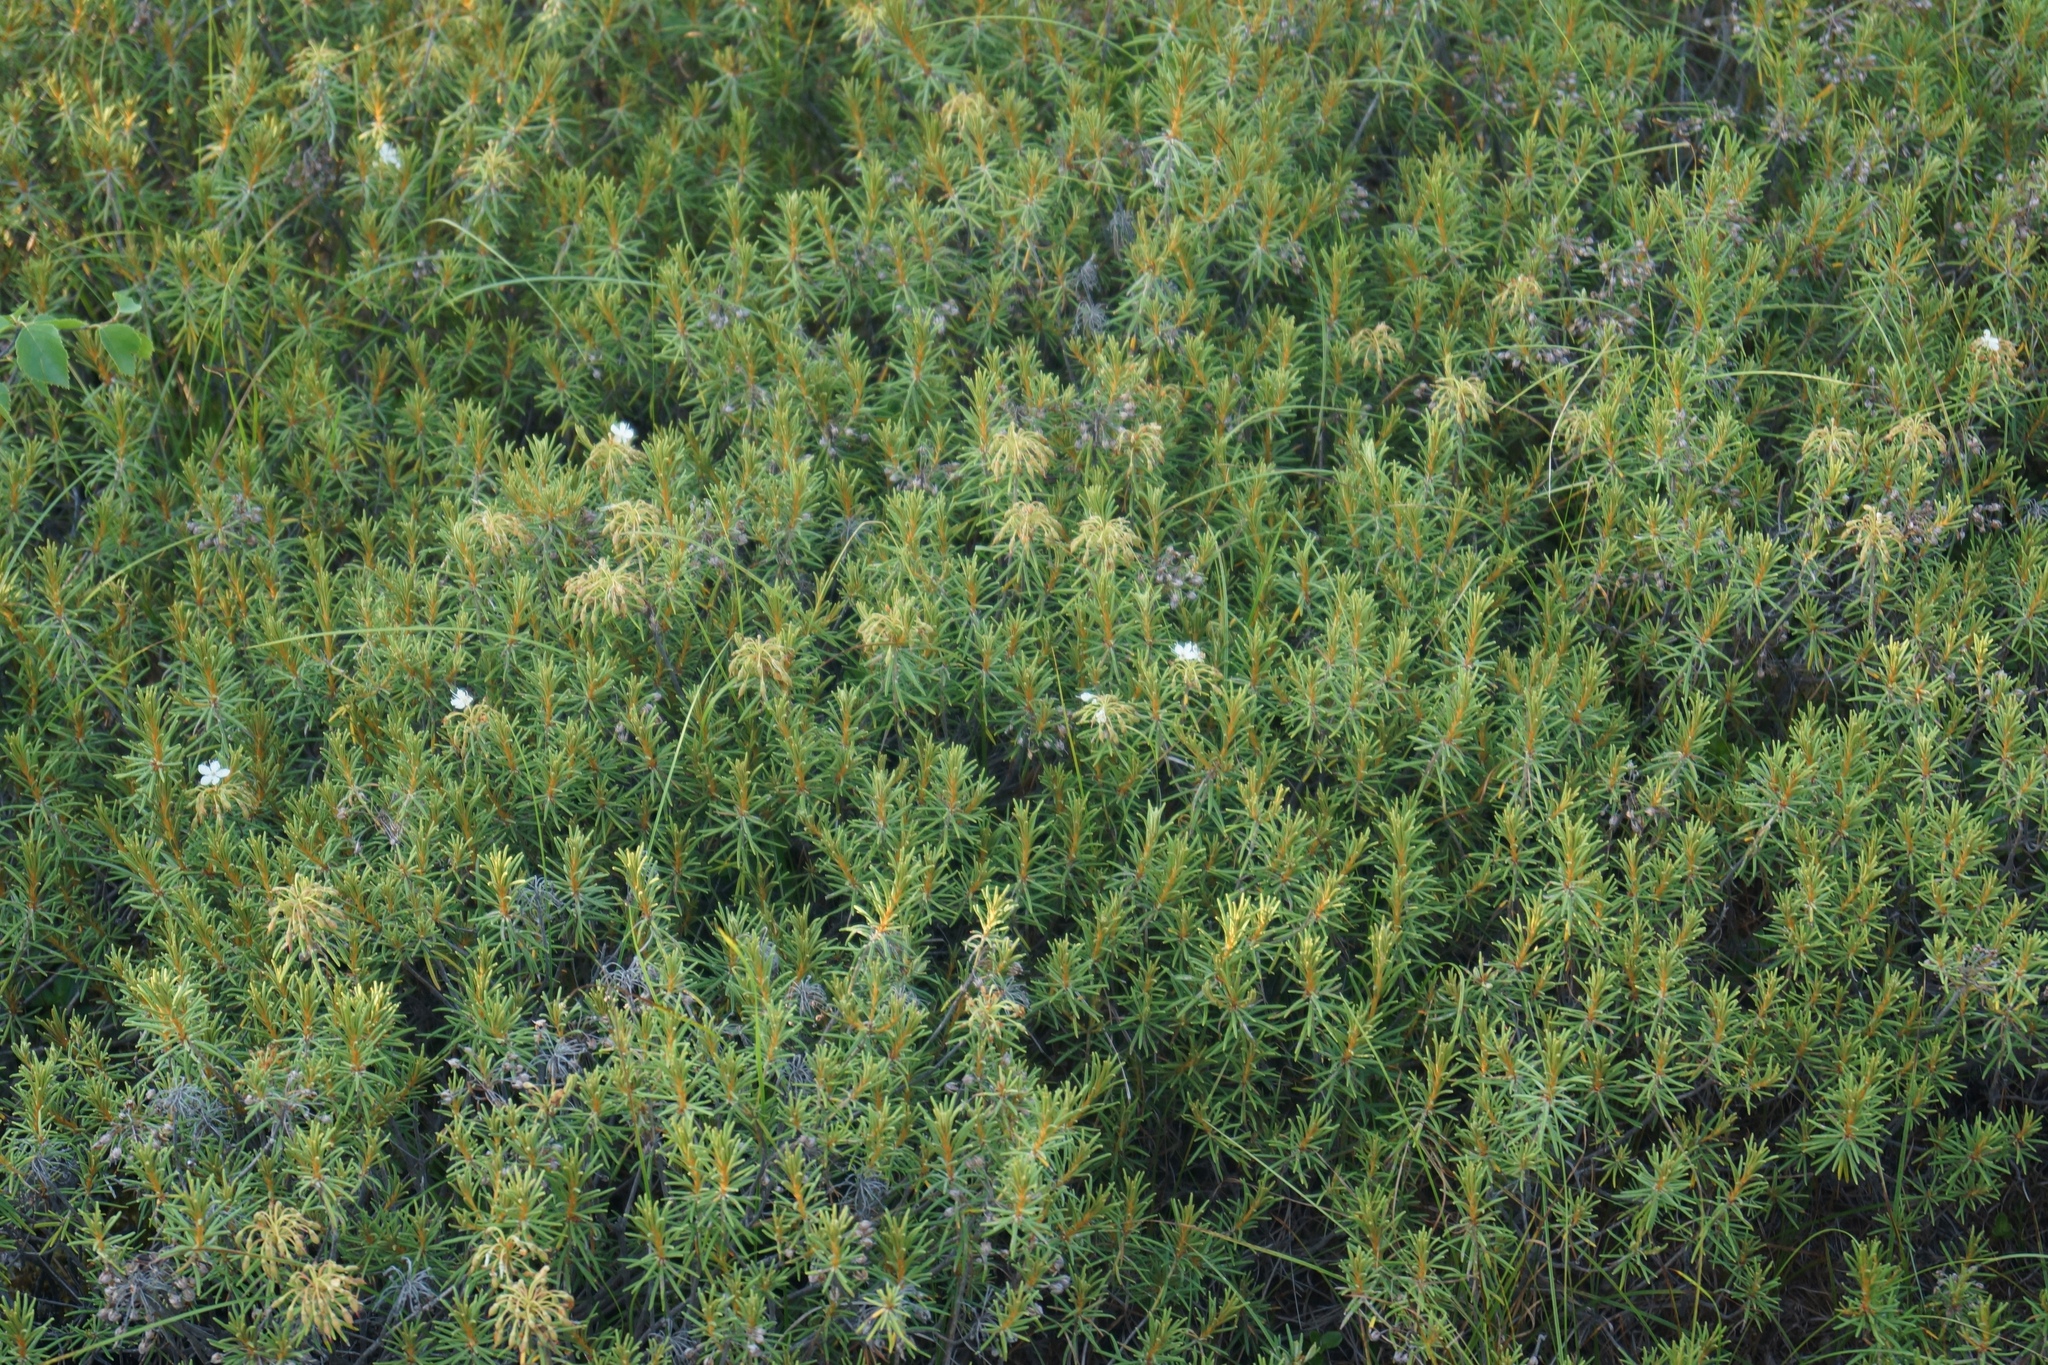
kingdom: Plantae
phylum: Tracheophyta
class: Magnoliopsida
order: Ericales
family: Ericaceae
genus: Rhododendron
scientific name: Rhododendron tomentosum
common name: Marsh labrador tea
